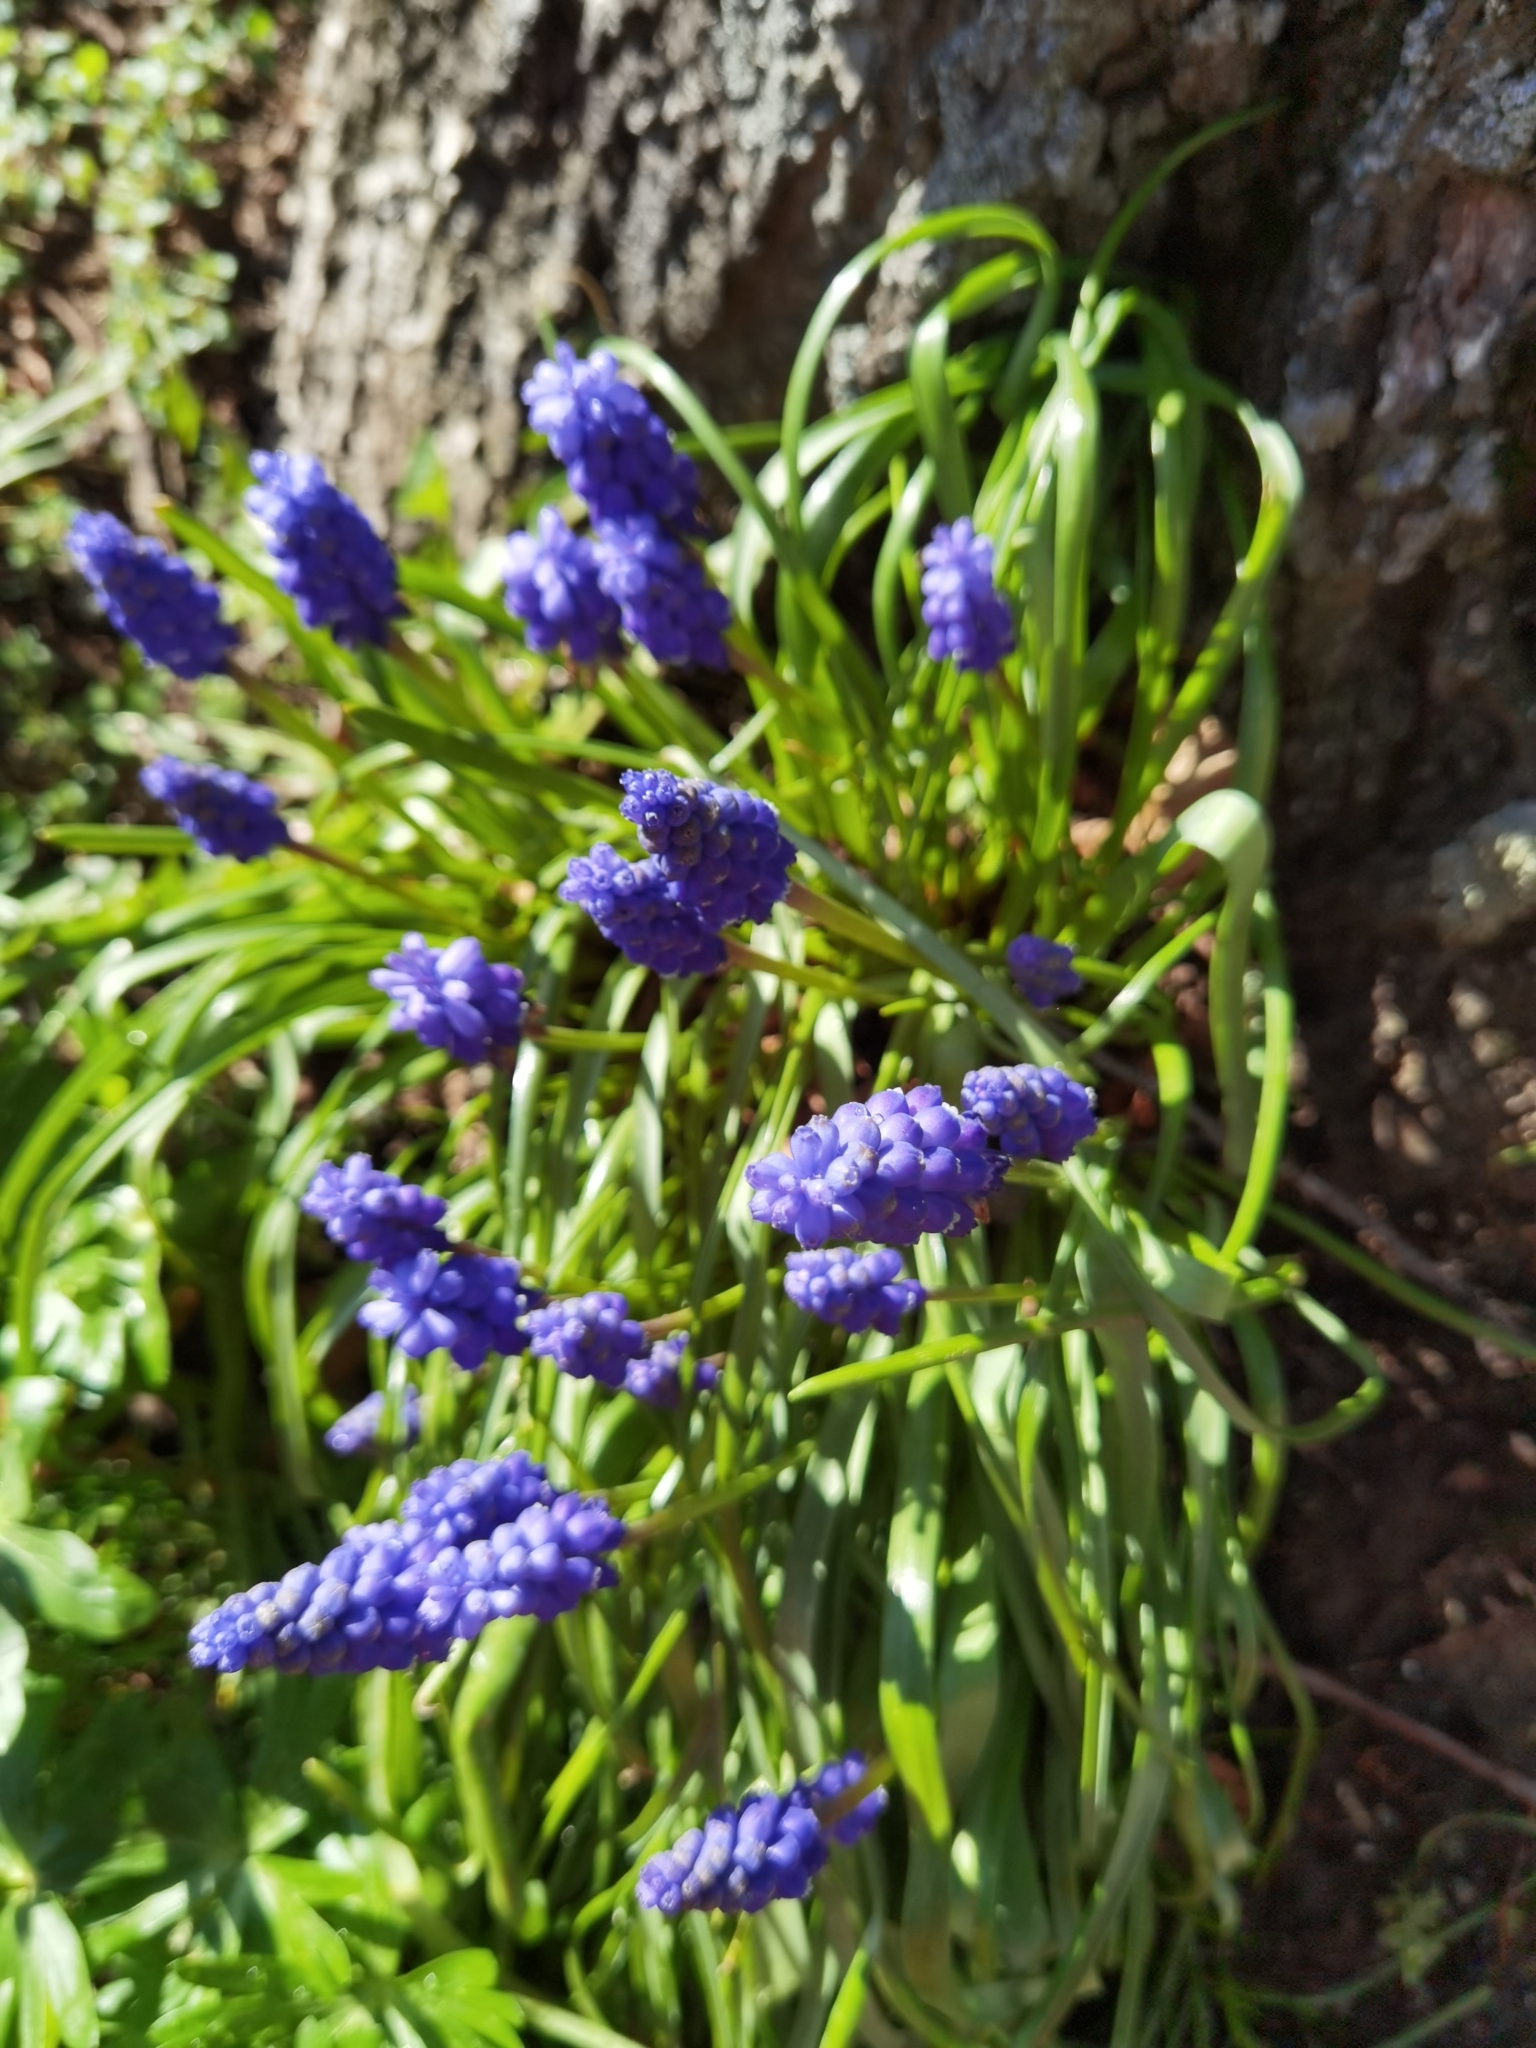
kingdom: Plantae
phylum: Tracheophyta
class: Liliopsida
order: Asparagales
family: Asparagaceae
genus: Muscari
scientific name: Muscari armeniacum
